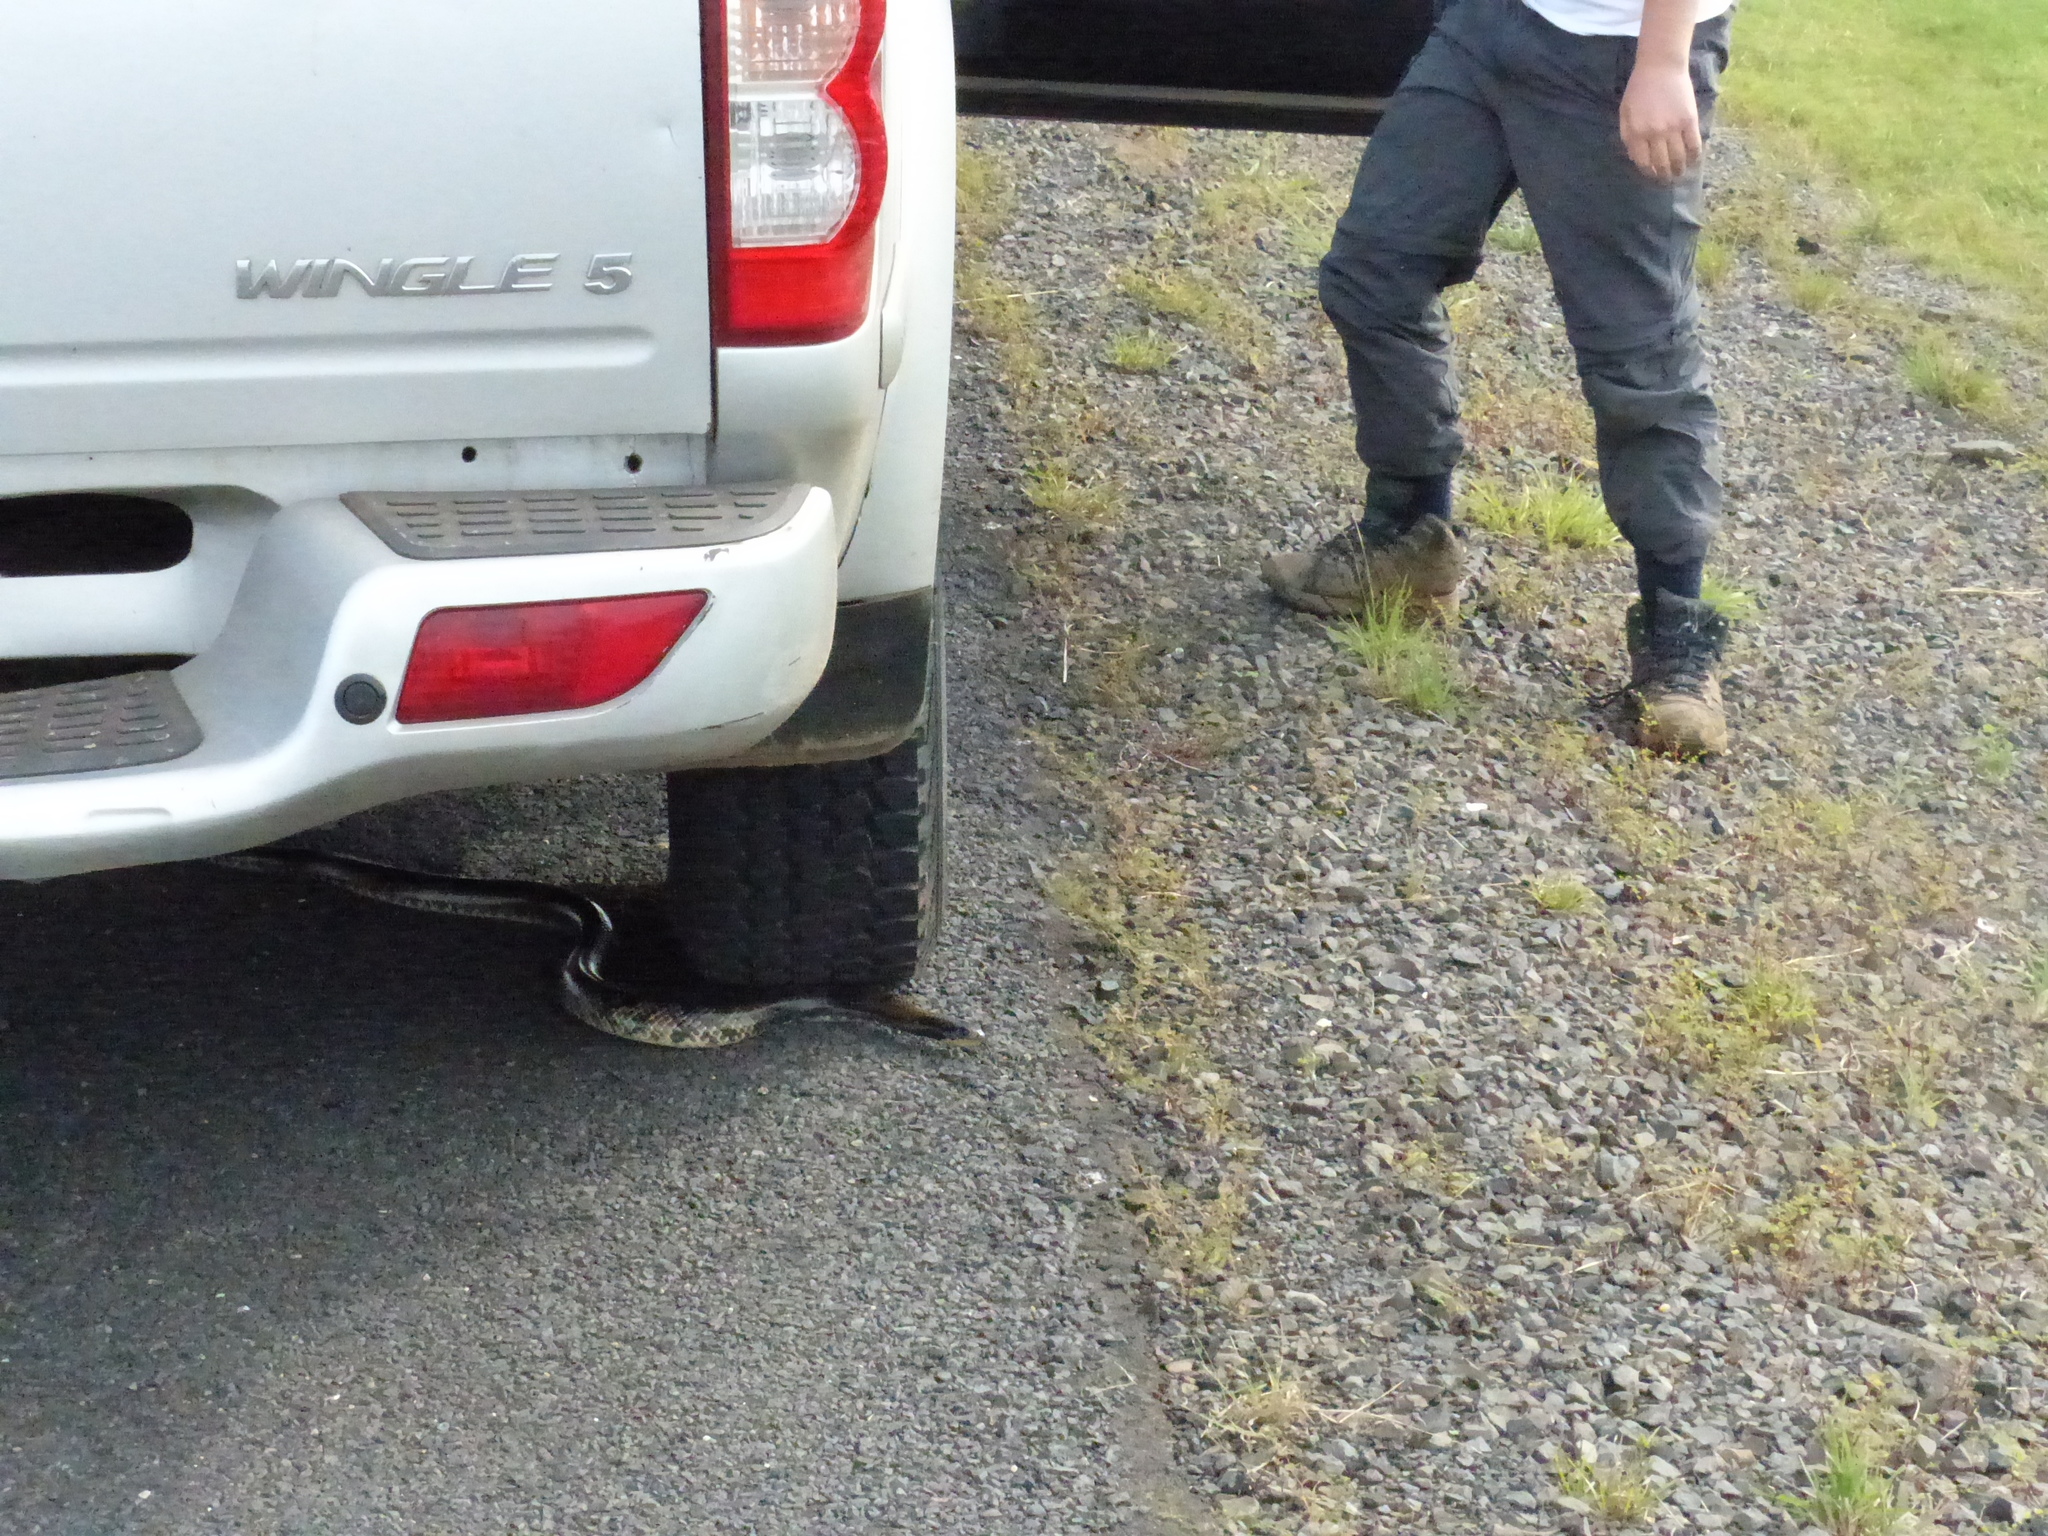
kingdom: Animalia
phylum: Chordata
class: Squamata
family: Colubridae
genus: Hydrodynastes
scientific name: Hydrodynastes gigas
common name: False water cobra
